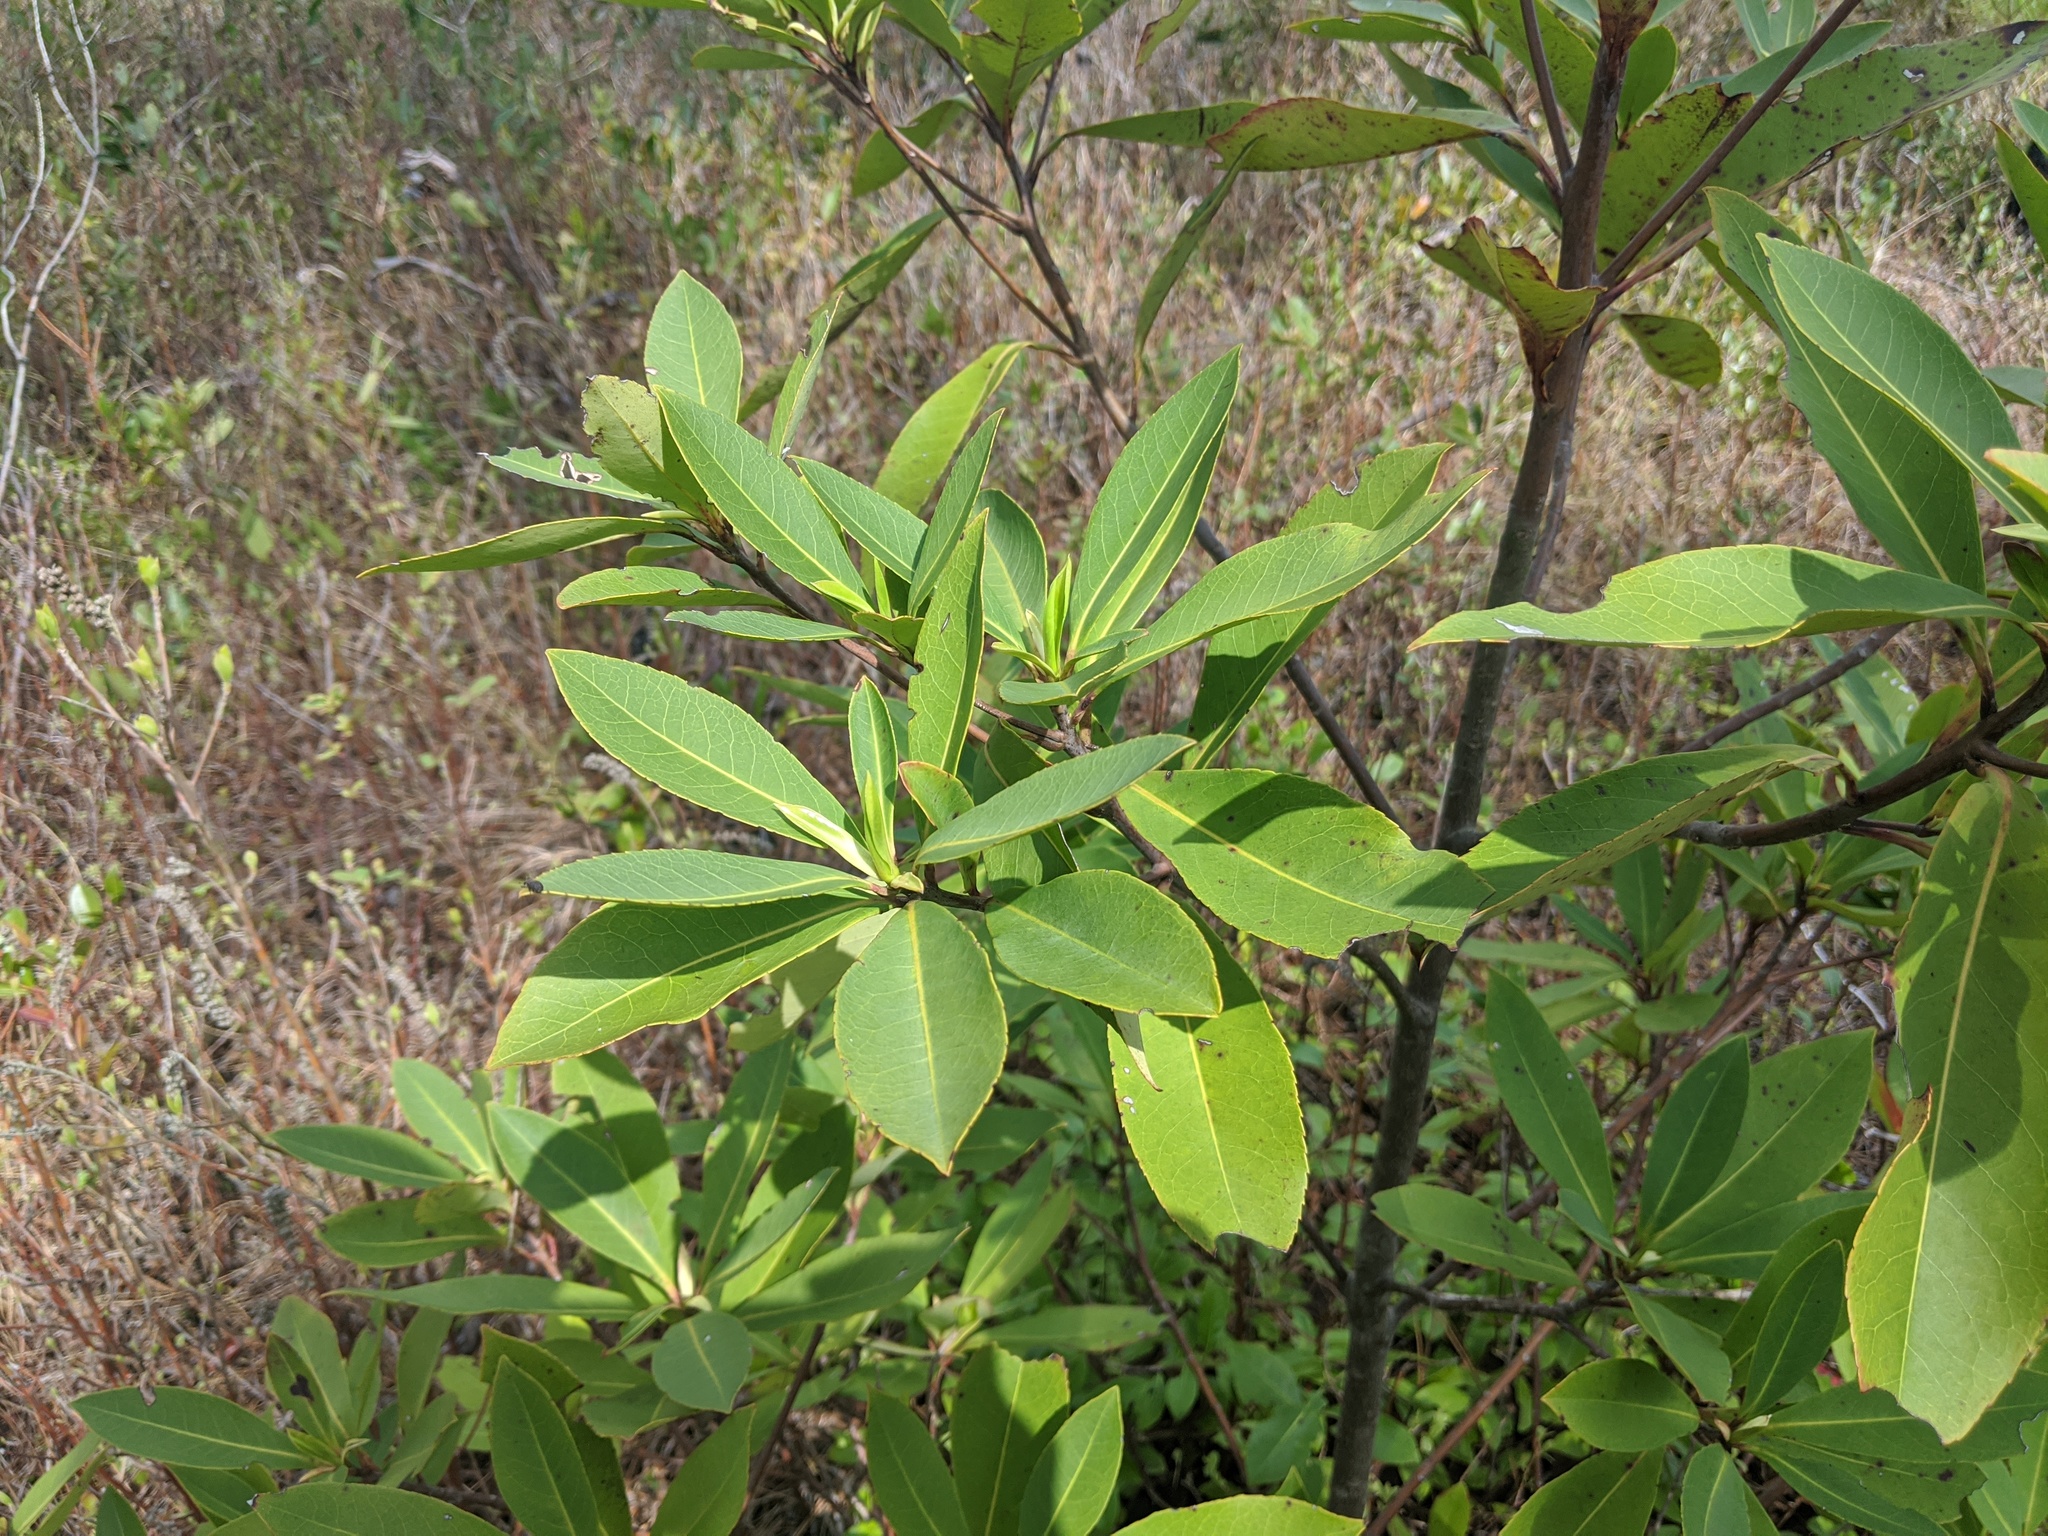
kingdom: Plantae
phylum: Tracheophyta
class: Magnoliopsida
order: Ericales
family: Theaceae
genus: Gordonia
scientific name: Gordonia lasianthus
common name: Loblolly bay
